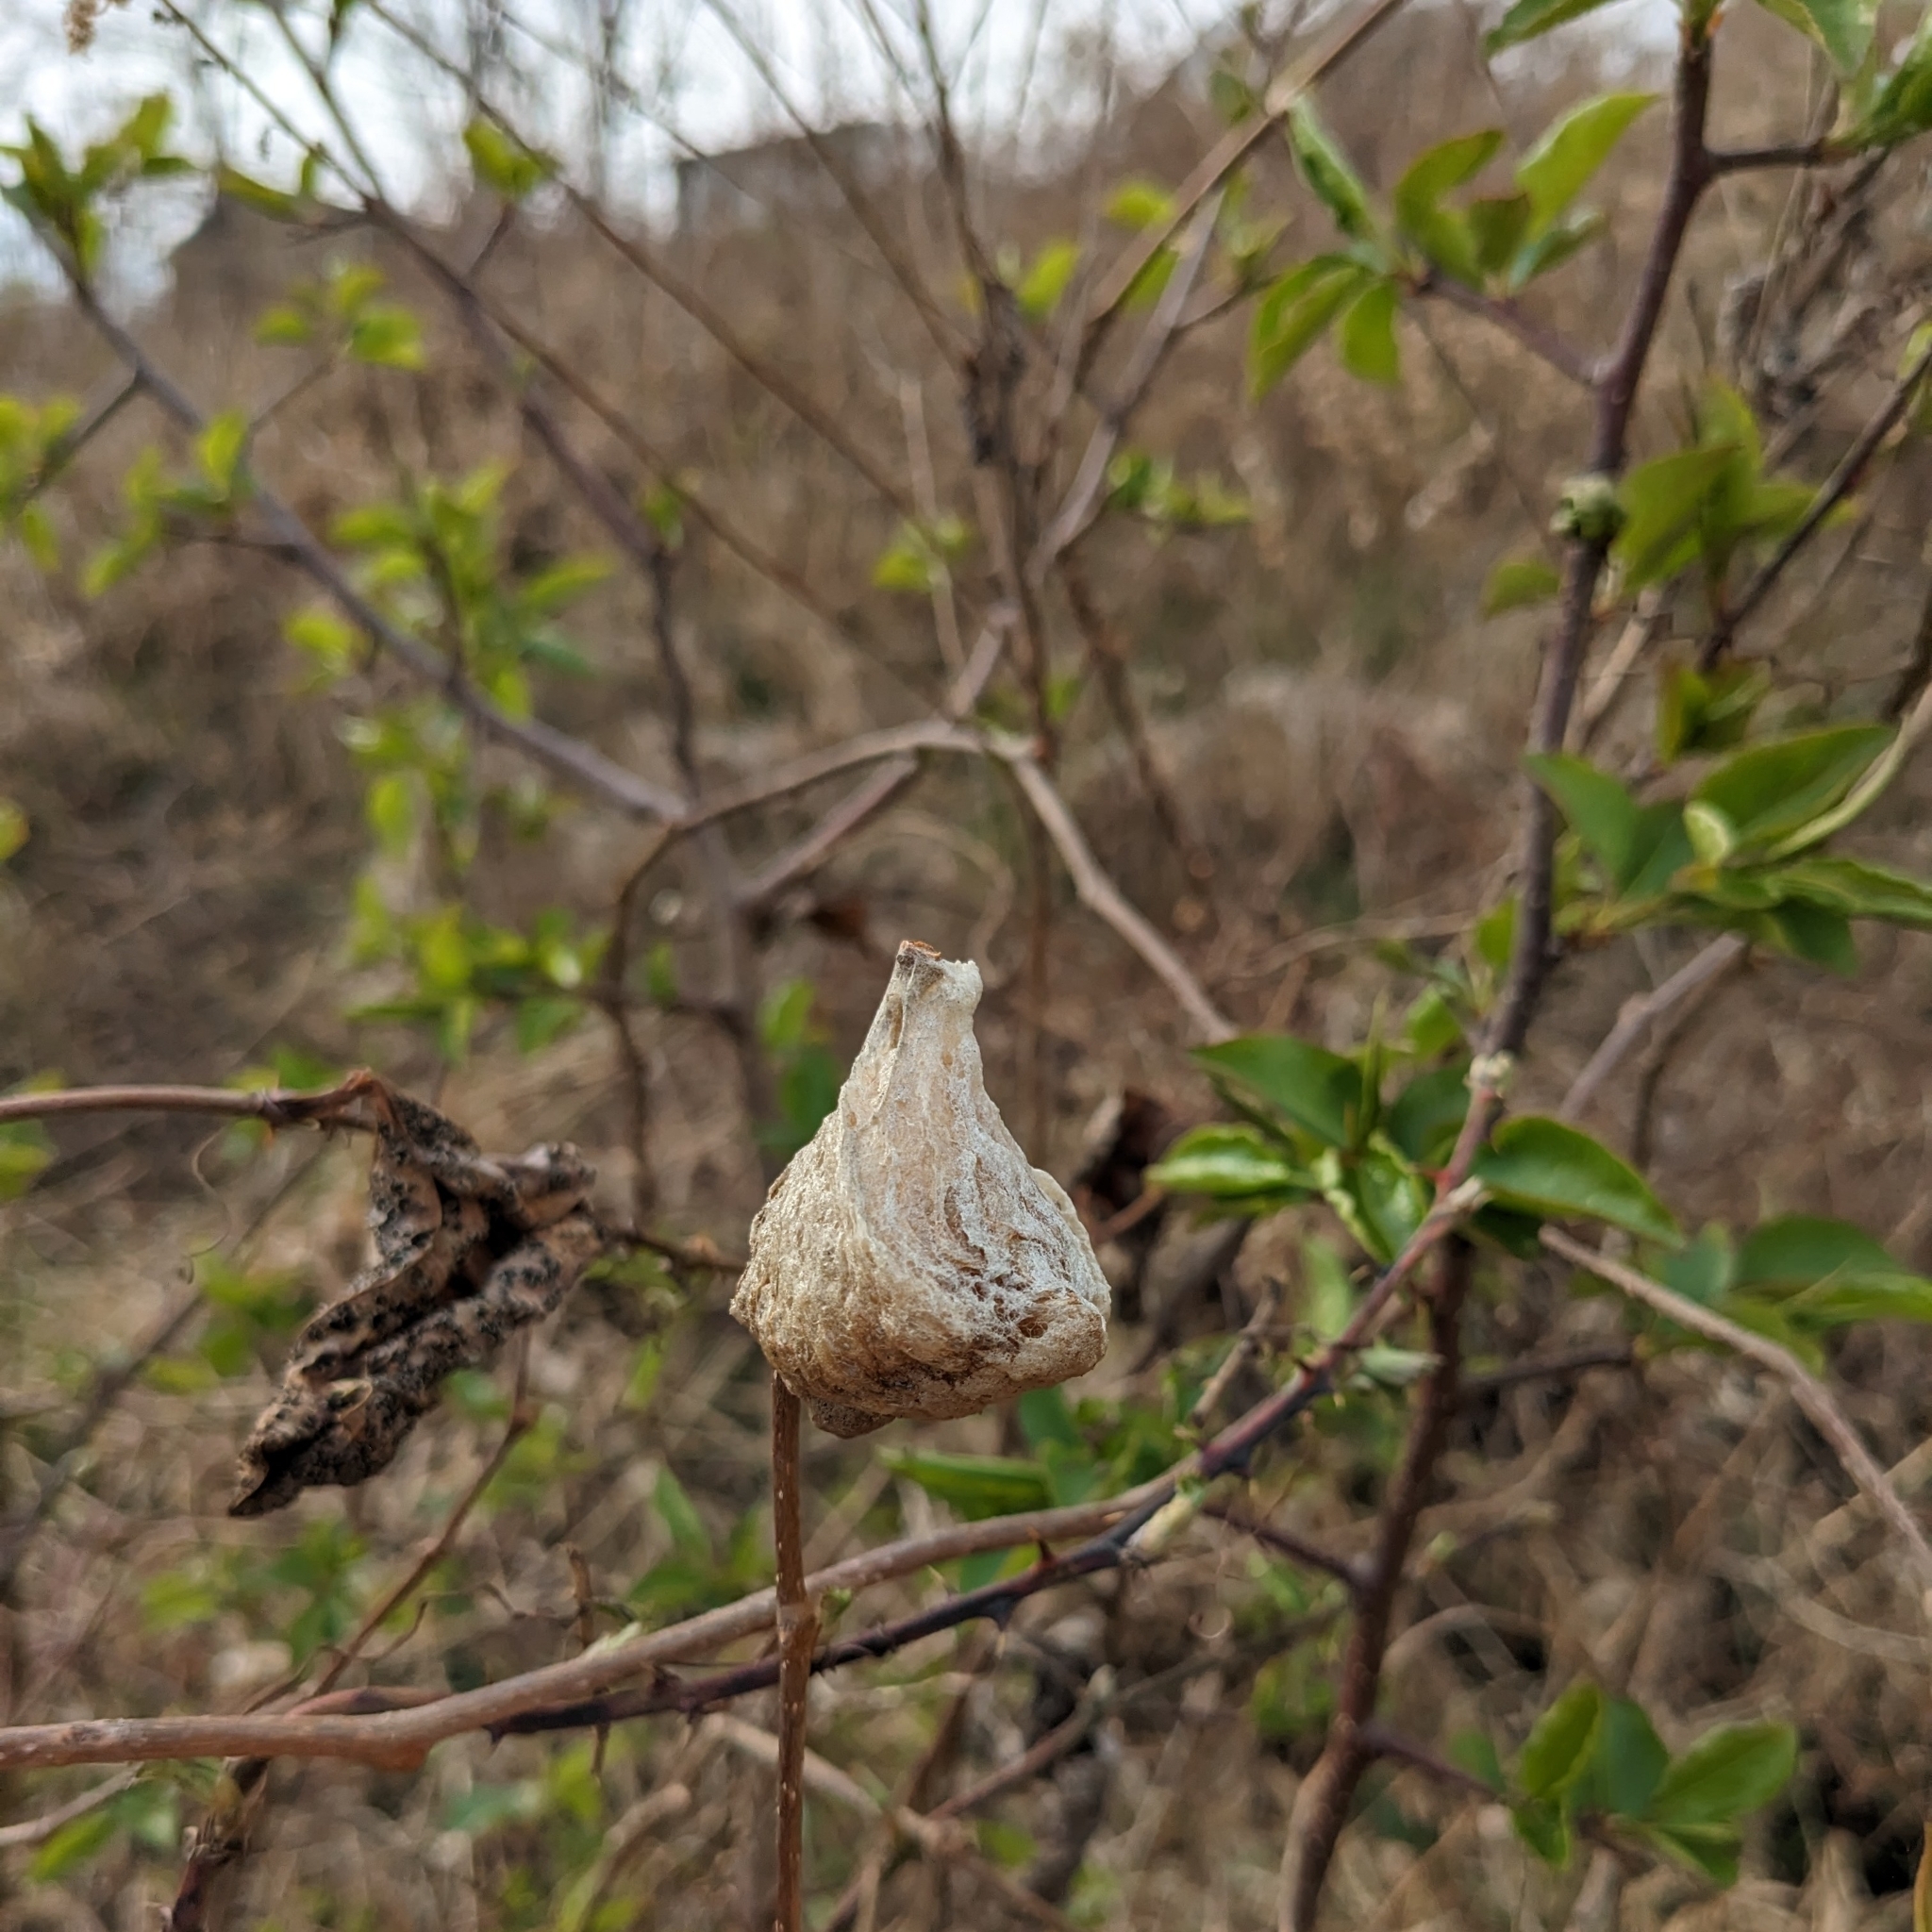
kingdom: Animalia
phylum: Arthropoda
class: Insecta
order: Mantodea
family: Mantidae
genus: Tenodera
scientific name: Tenodera sinensis
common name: Chinese mantis
